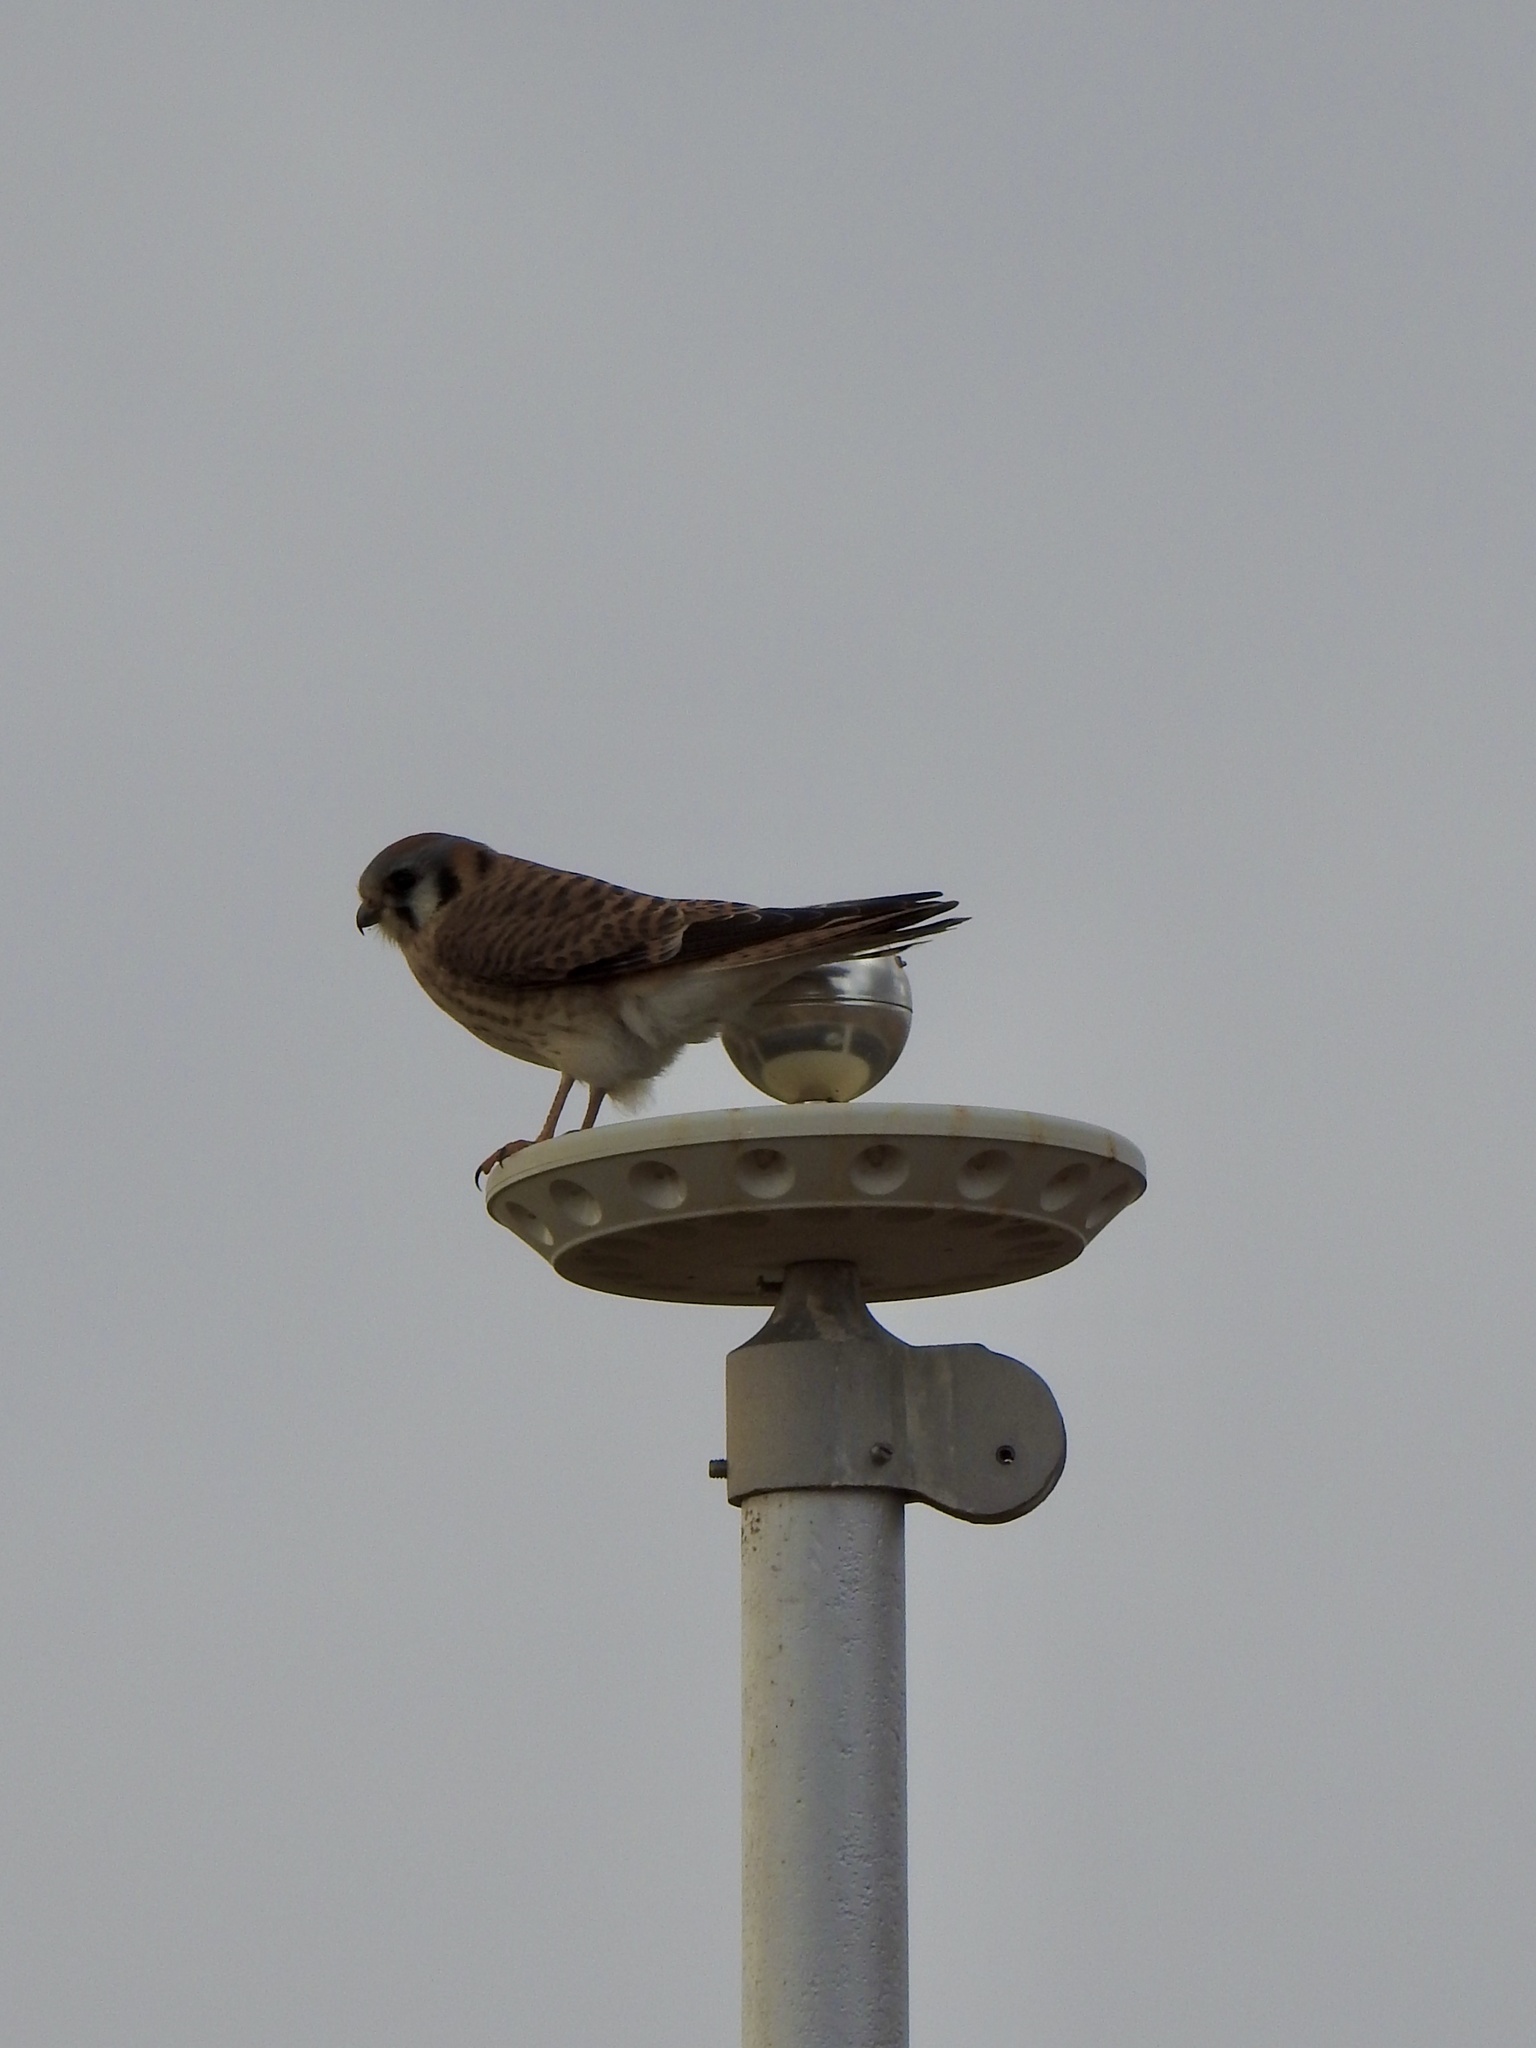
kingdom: Animalia
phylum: Chordata
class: Aves
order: Falconiformes
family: Falconidae
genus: Falco
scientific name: Falco sparverius
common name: American kestrel
